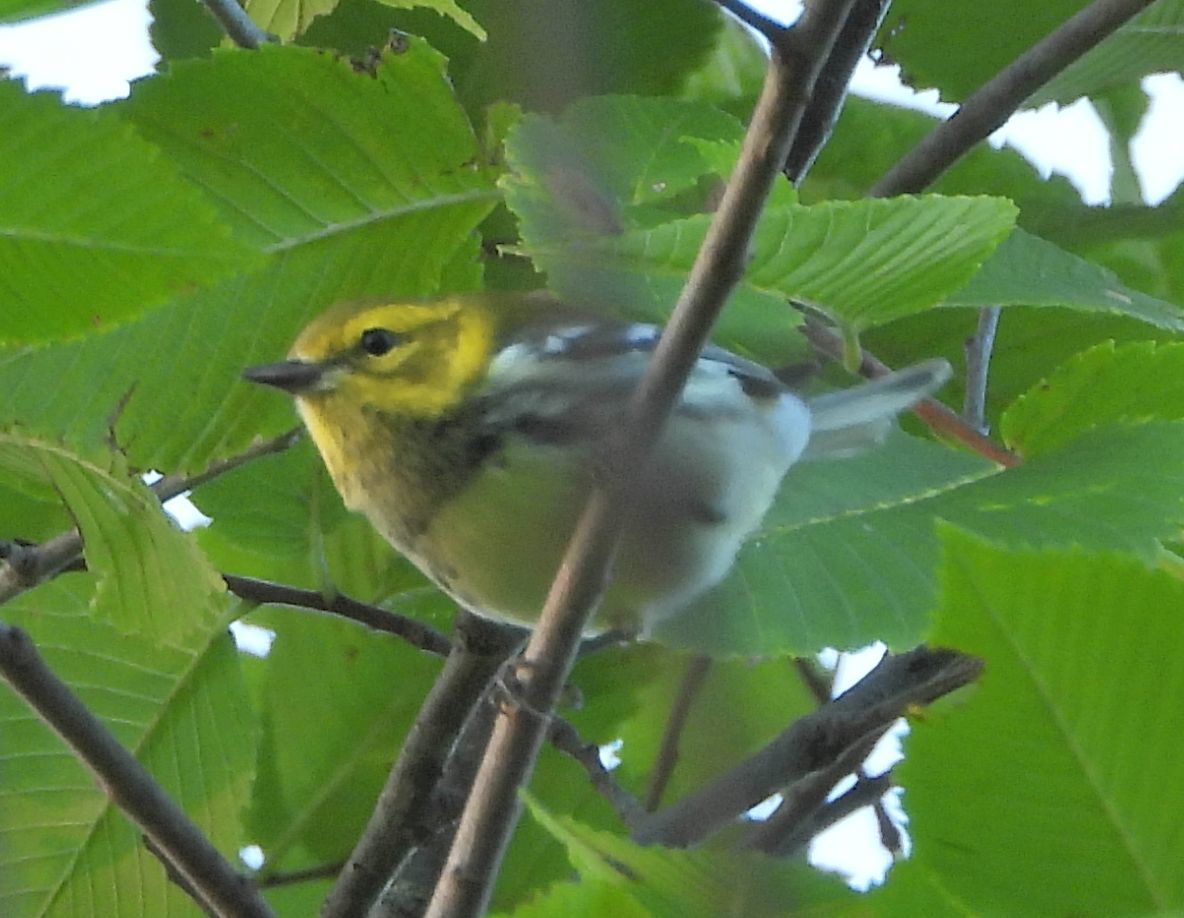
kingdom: Animalia
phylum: Chordata
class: Aves
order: Passeriformes
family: Parulidae
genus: Setophaga
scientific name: Setophaga virens
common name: Black-throated green warbler
